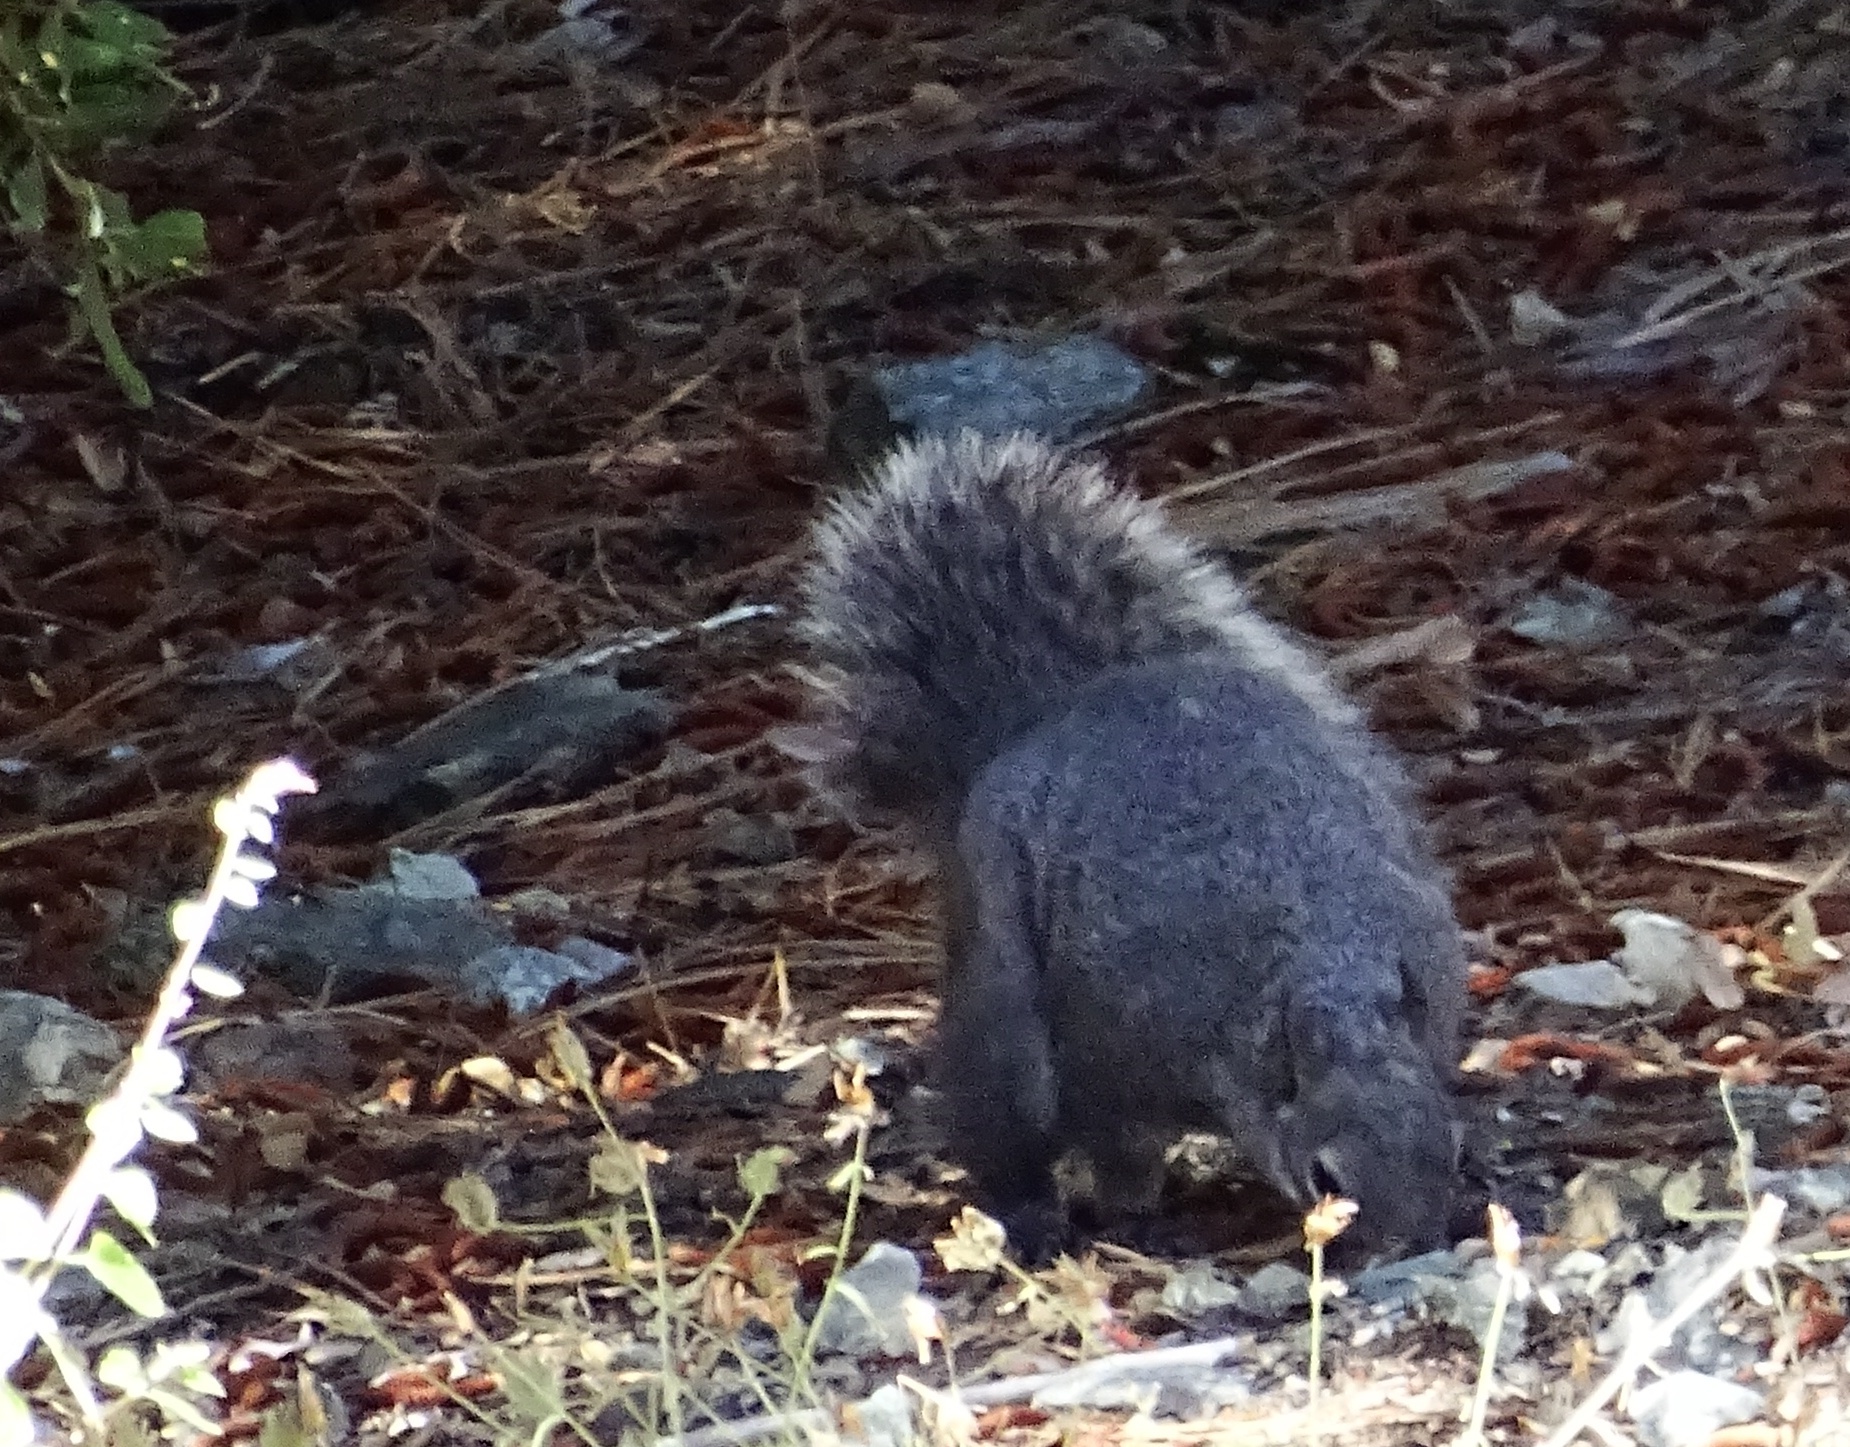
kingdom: Animalia
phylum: Chordata
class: Mammalia
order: Rodentia
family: Sciuridae
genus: Sciurus
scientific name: Sciurus griseus
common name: Western gray squirrel
